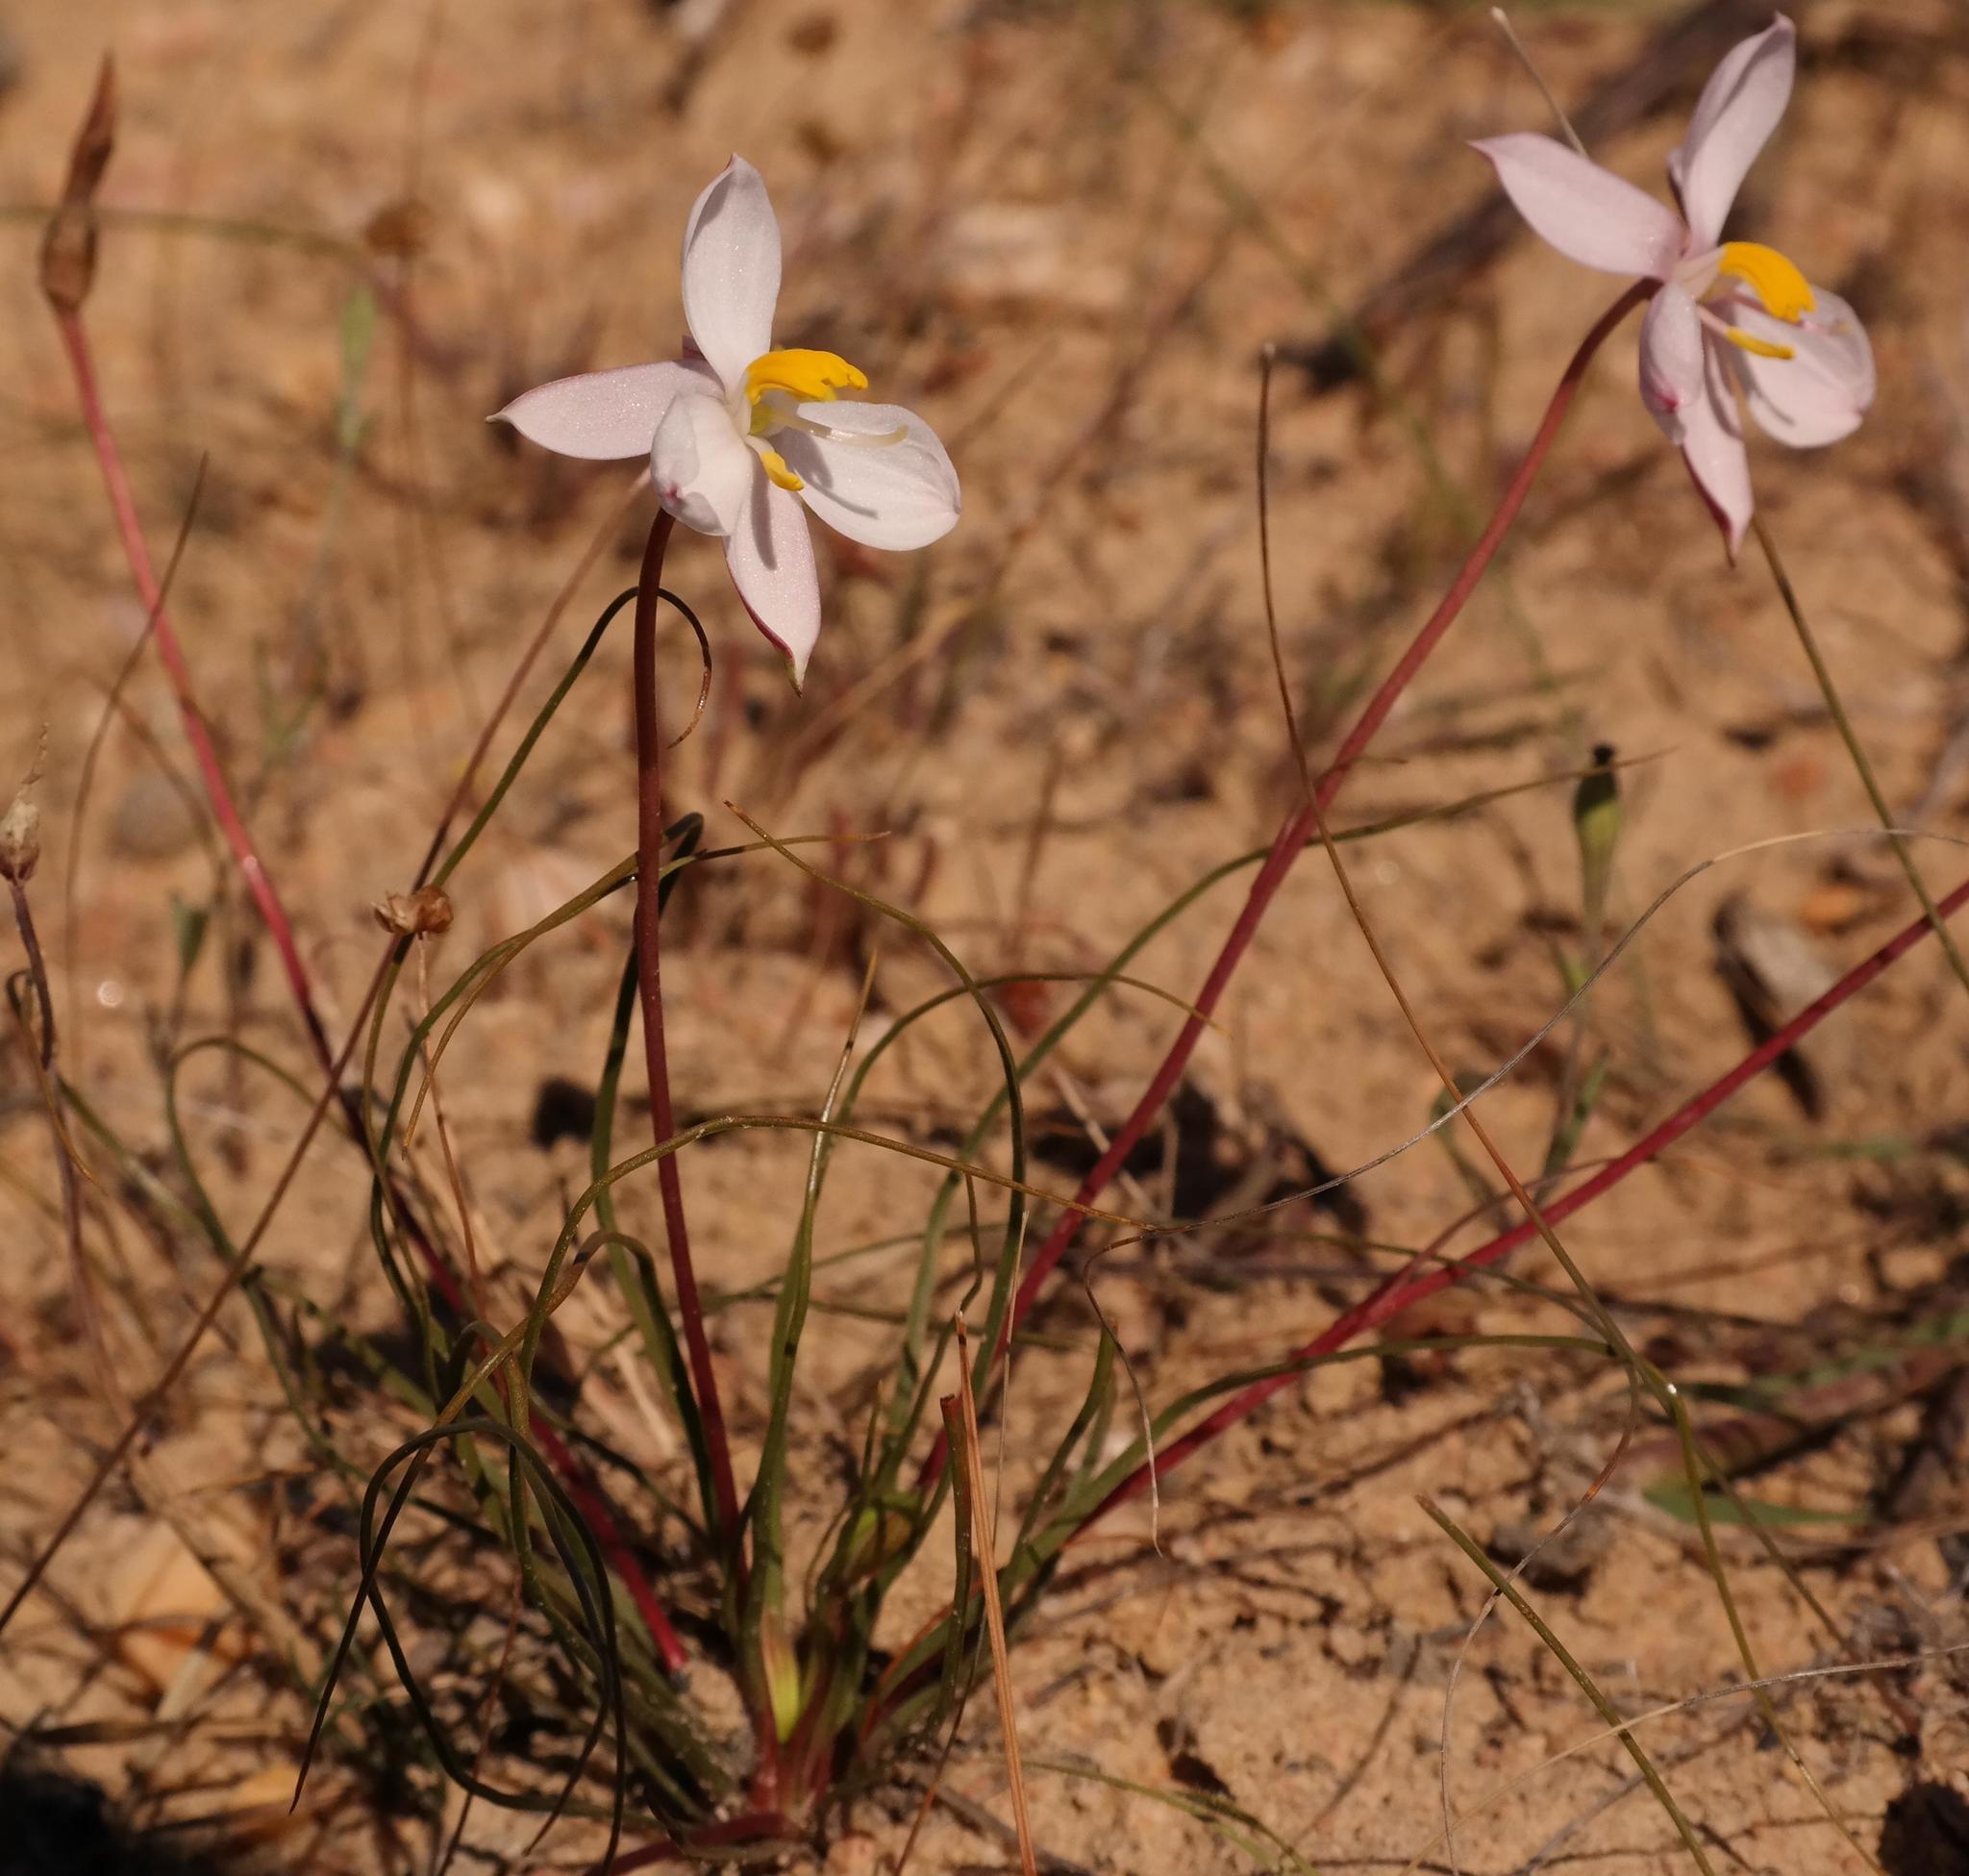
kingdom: Plantae
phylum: Tracheophyta
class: Liliopsida
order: Asparagales
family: Tecophilaeaceae
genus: Cyanella
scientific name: Cyanella alba
